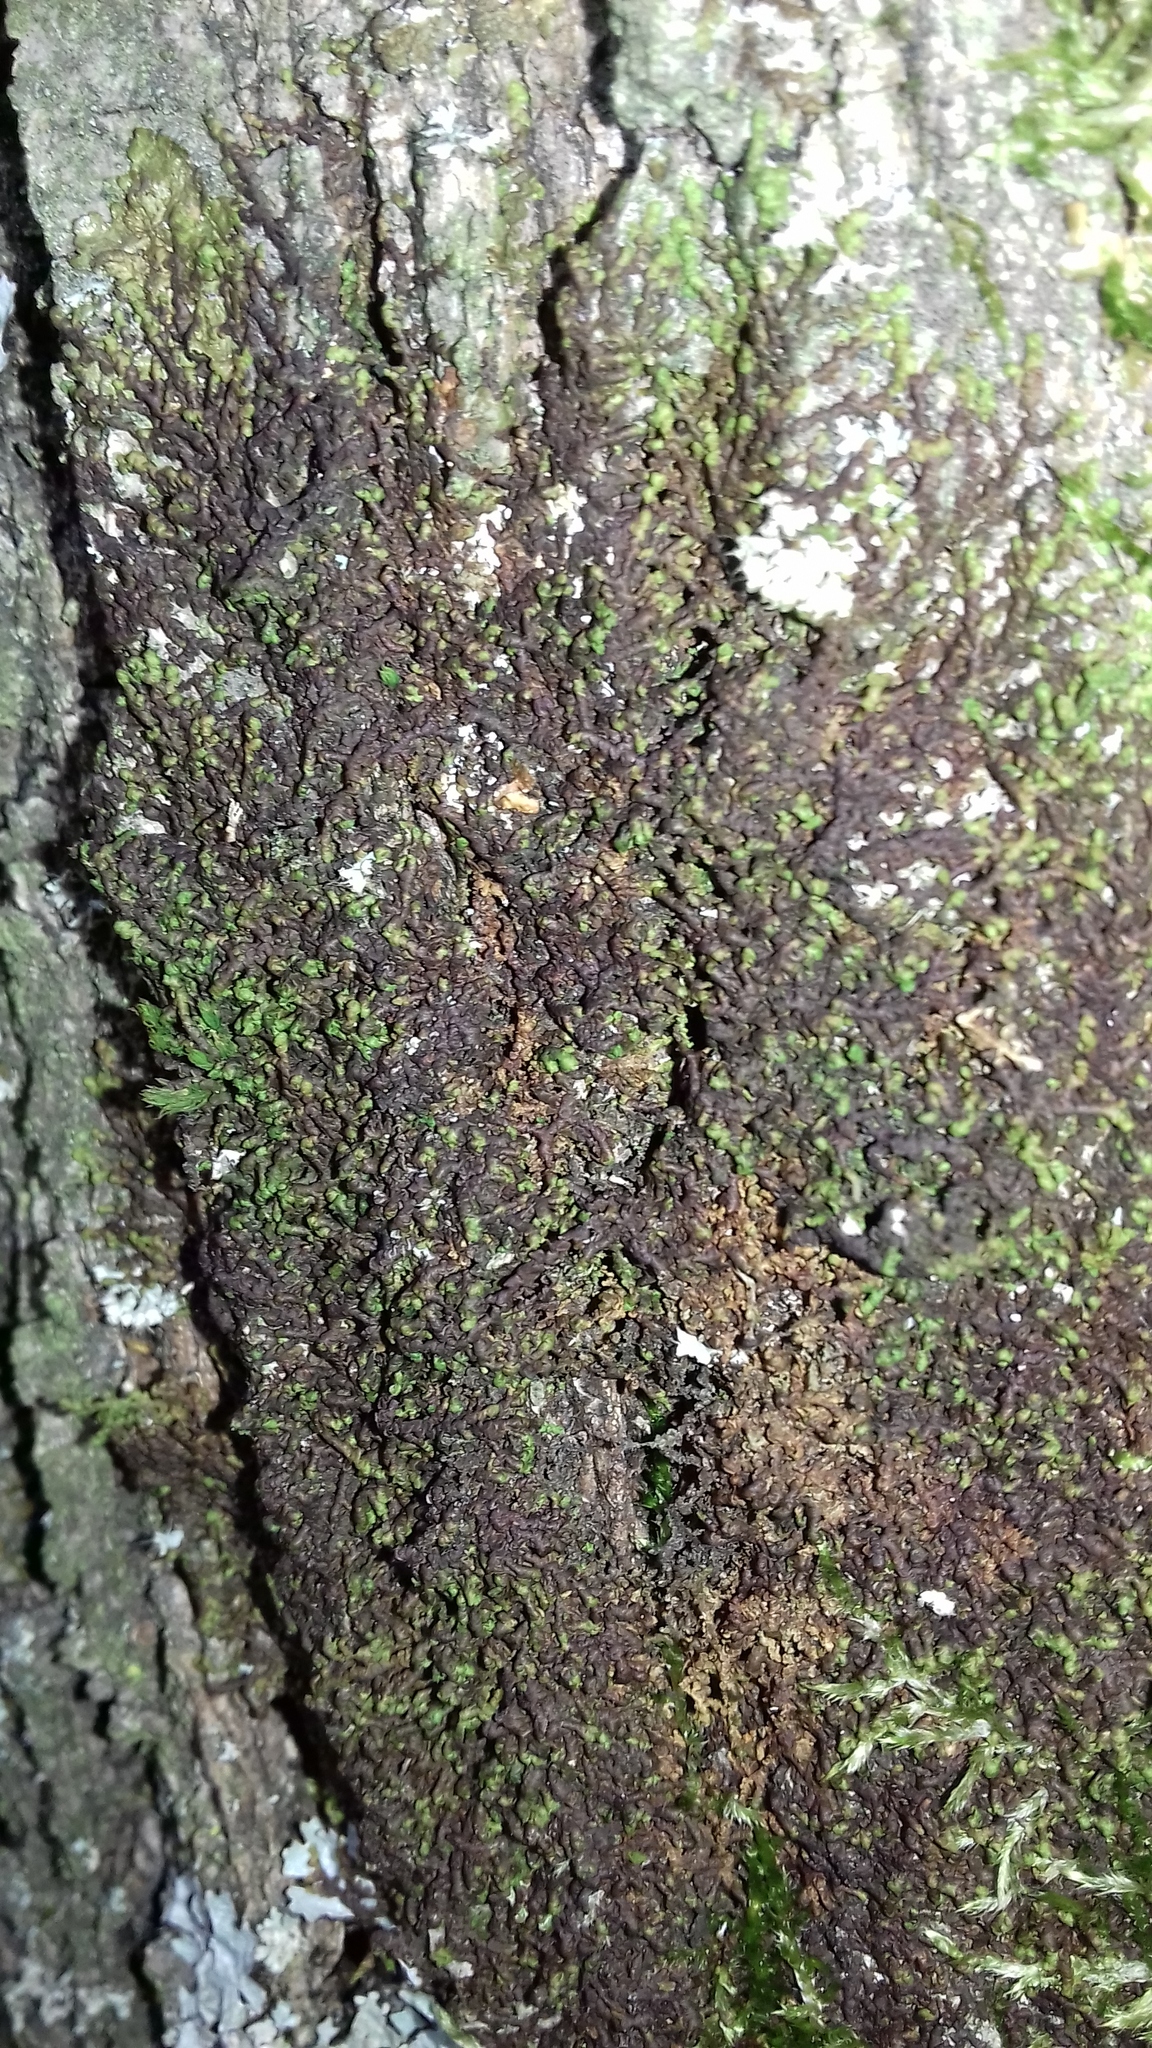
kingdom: Plantae
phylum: Marchantiophyta
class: Jungermanniopsida
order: Porellales
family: Frullaniaceae
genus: Frullania
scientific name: Frullania dilatata
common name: Dilated scalewort
